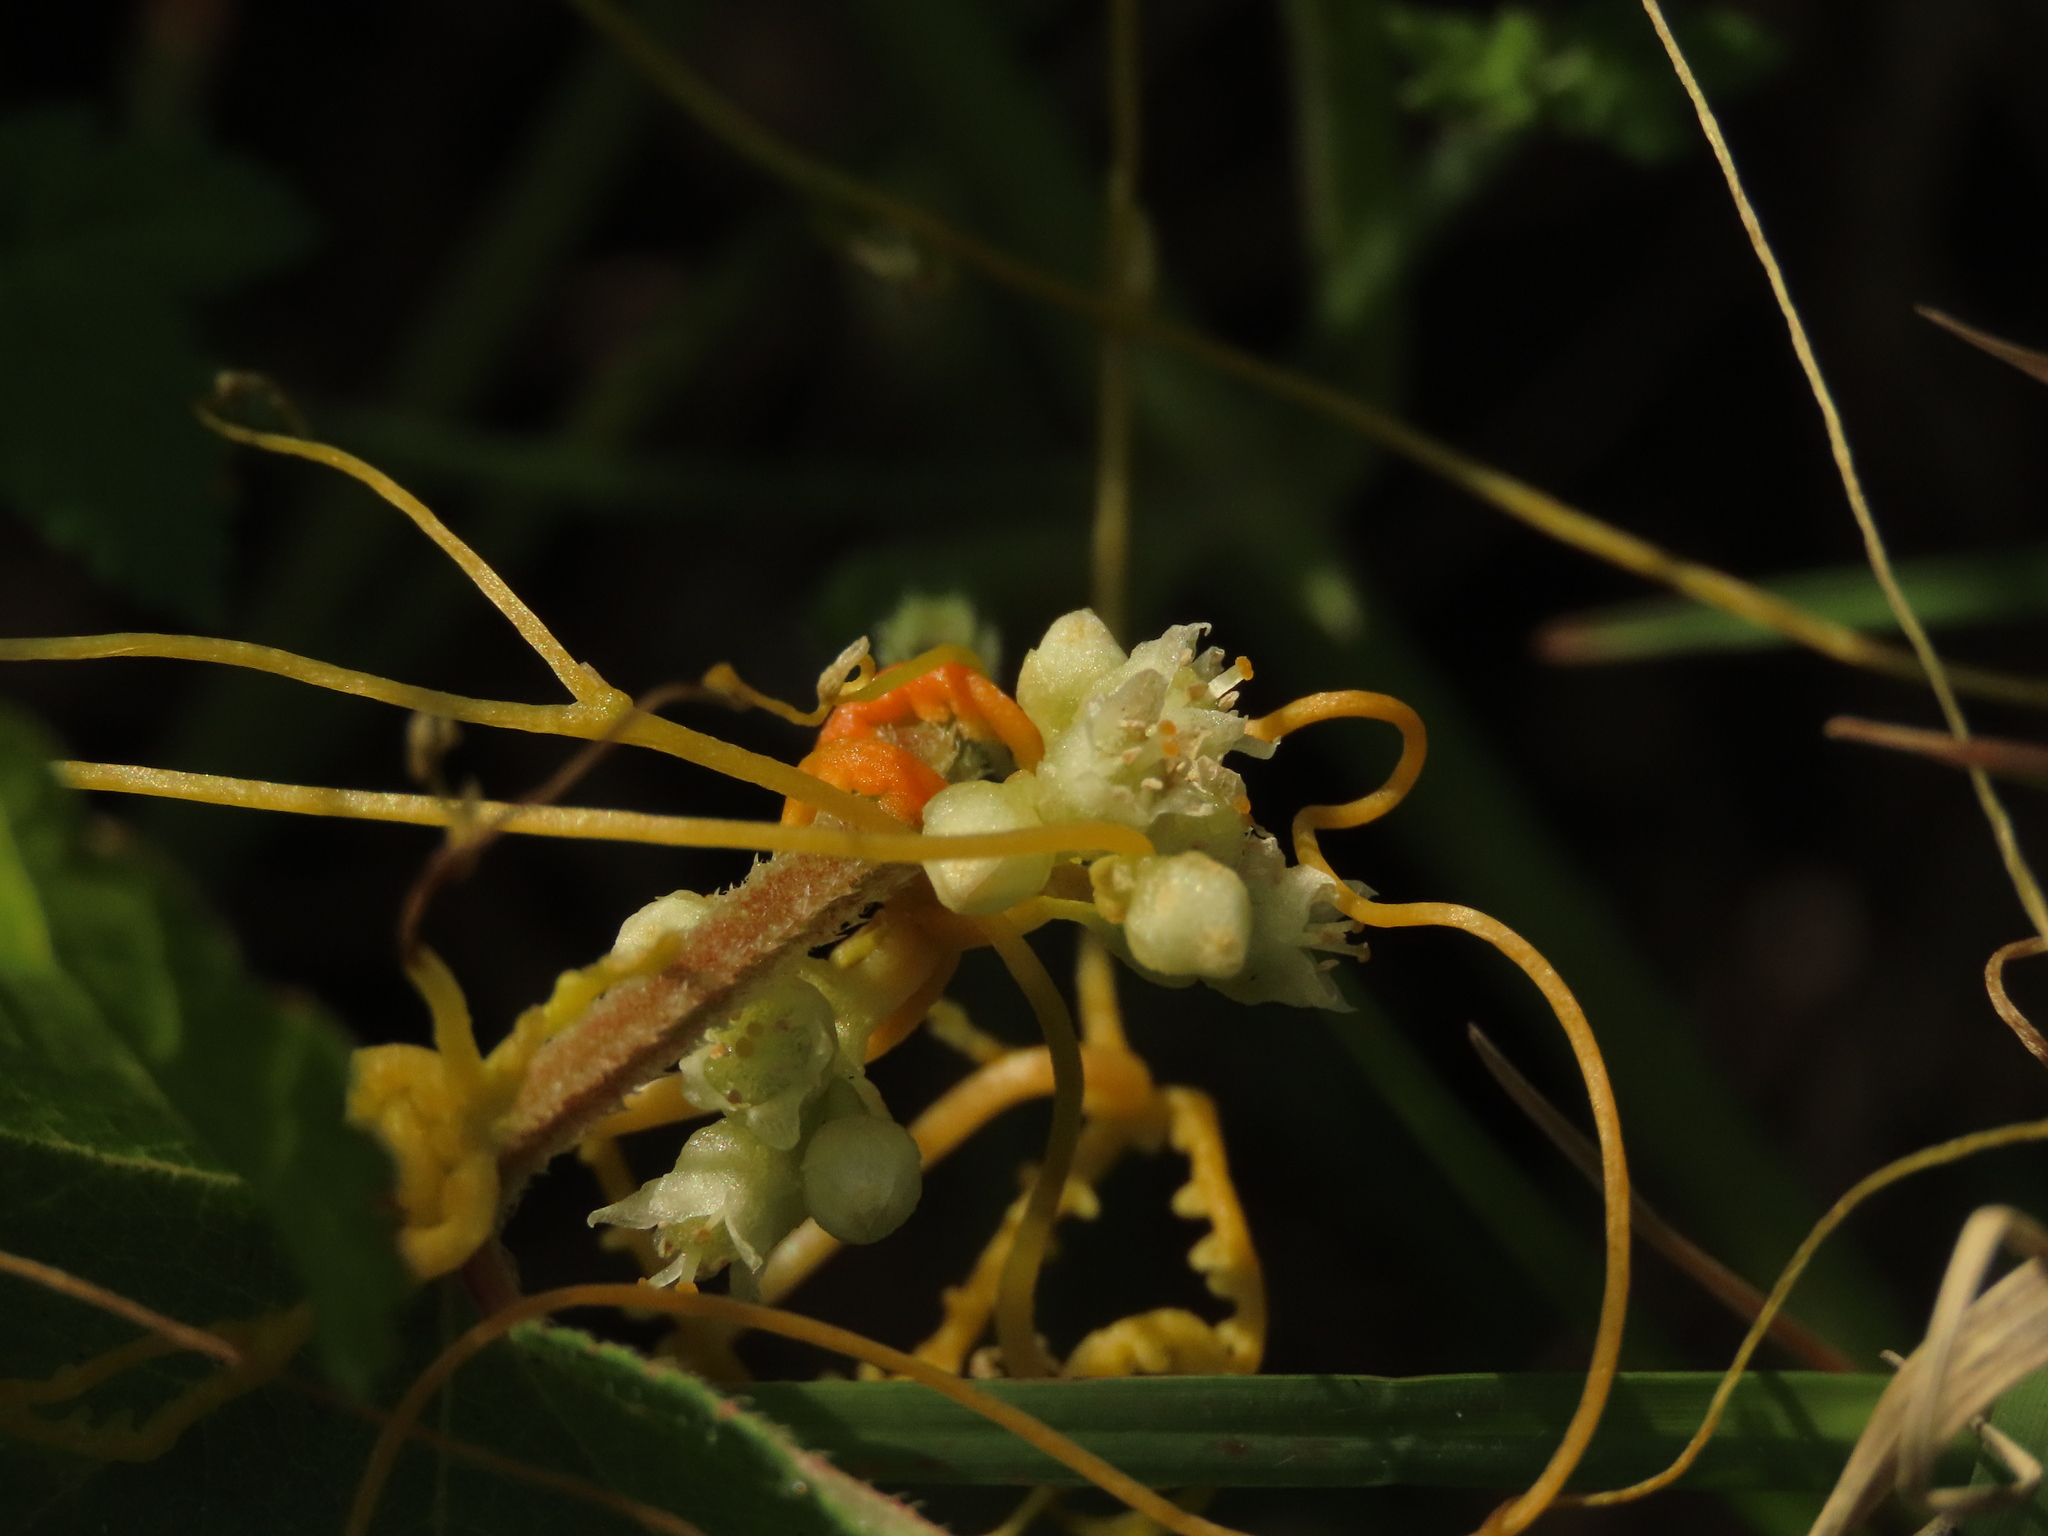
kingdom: Plantae
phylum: Tracheophyta
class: Magnoliopsida
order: Solanales
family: Convolvulaceae
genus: Cuscuta
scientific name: Cuscuta campestris
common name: Yellow dodder
